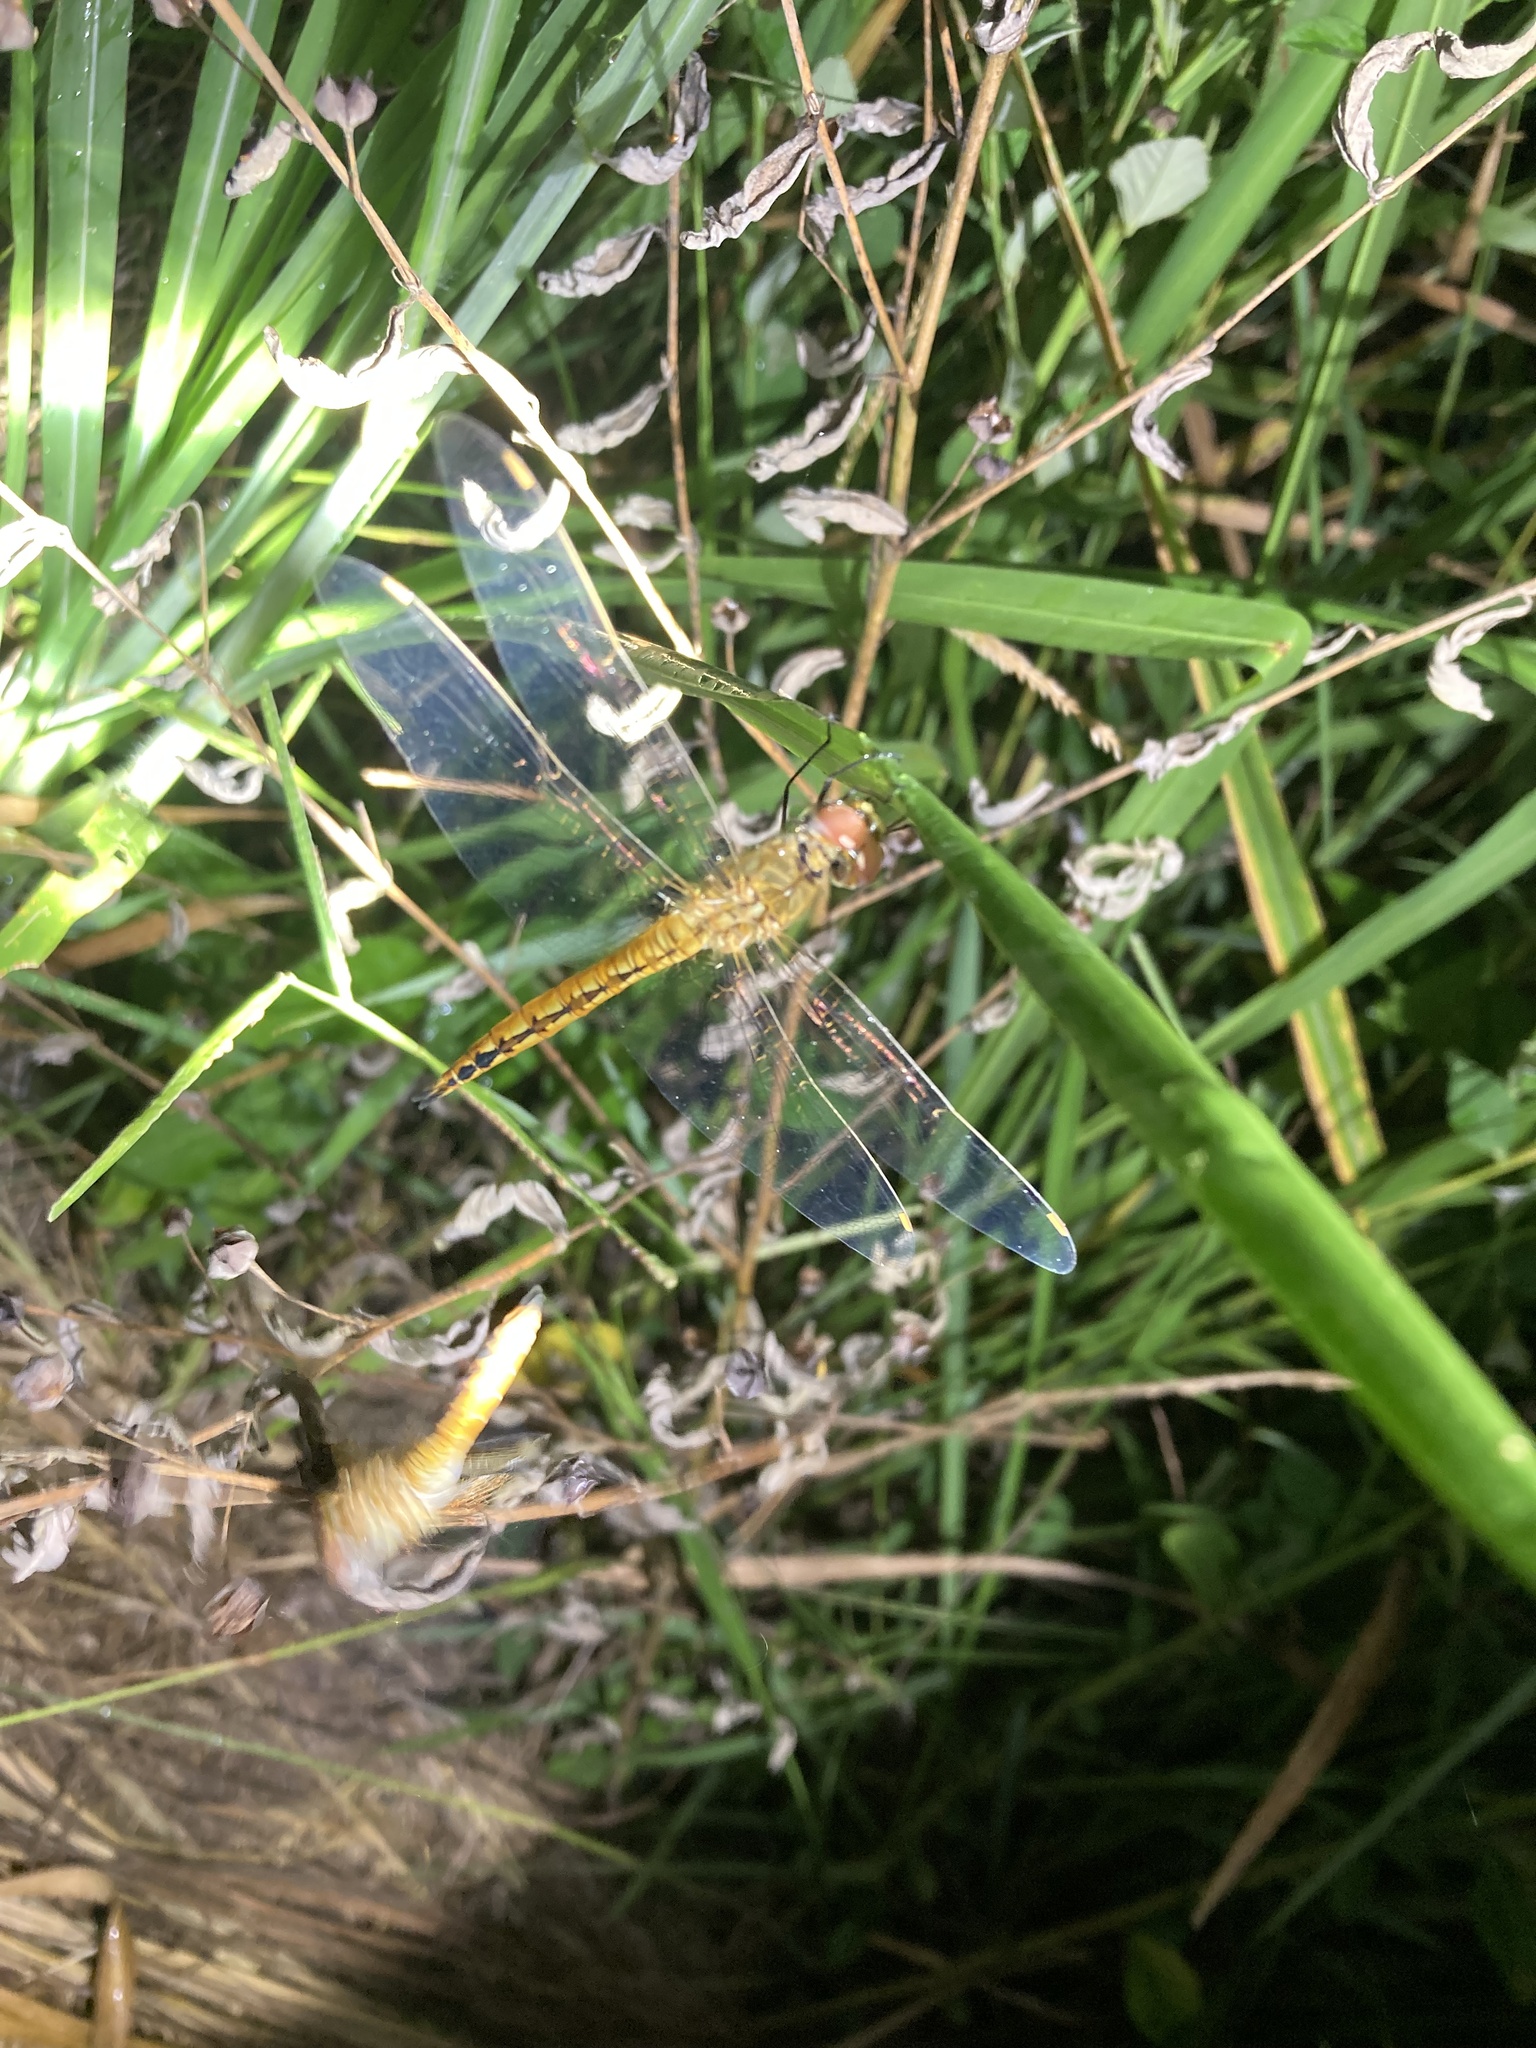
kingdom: Animalia
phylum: Arthropoda
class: Insecta
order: Odonata
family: Libellulidae
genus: Pantala
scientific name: Pantala flavescens
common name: Wandering glider
